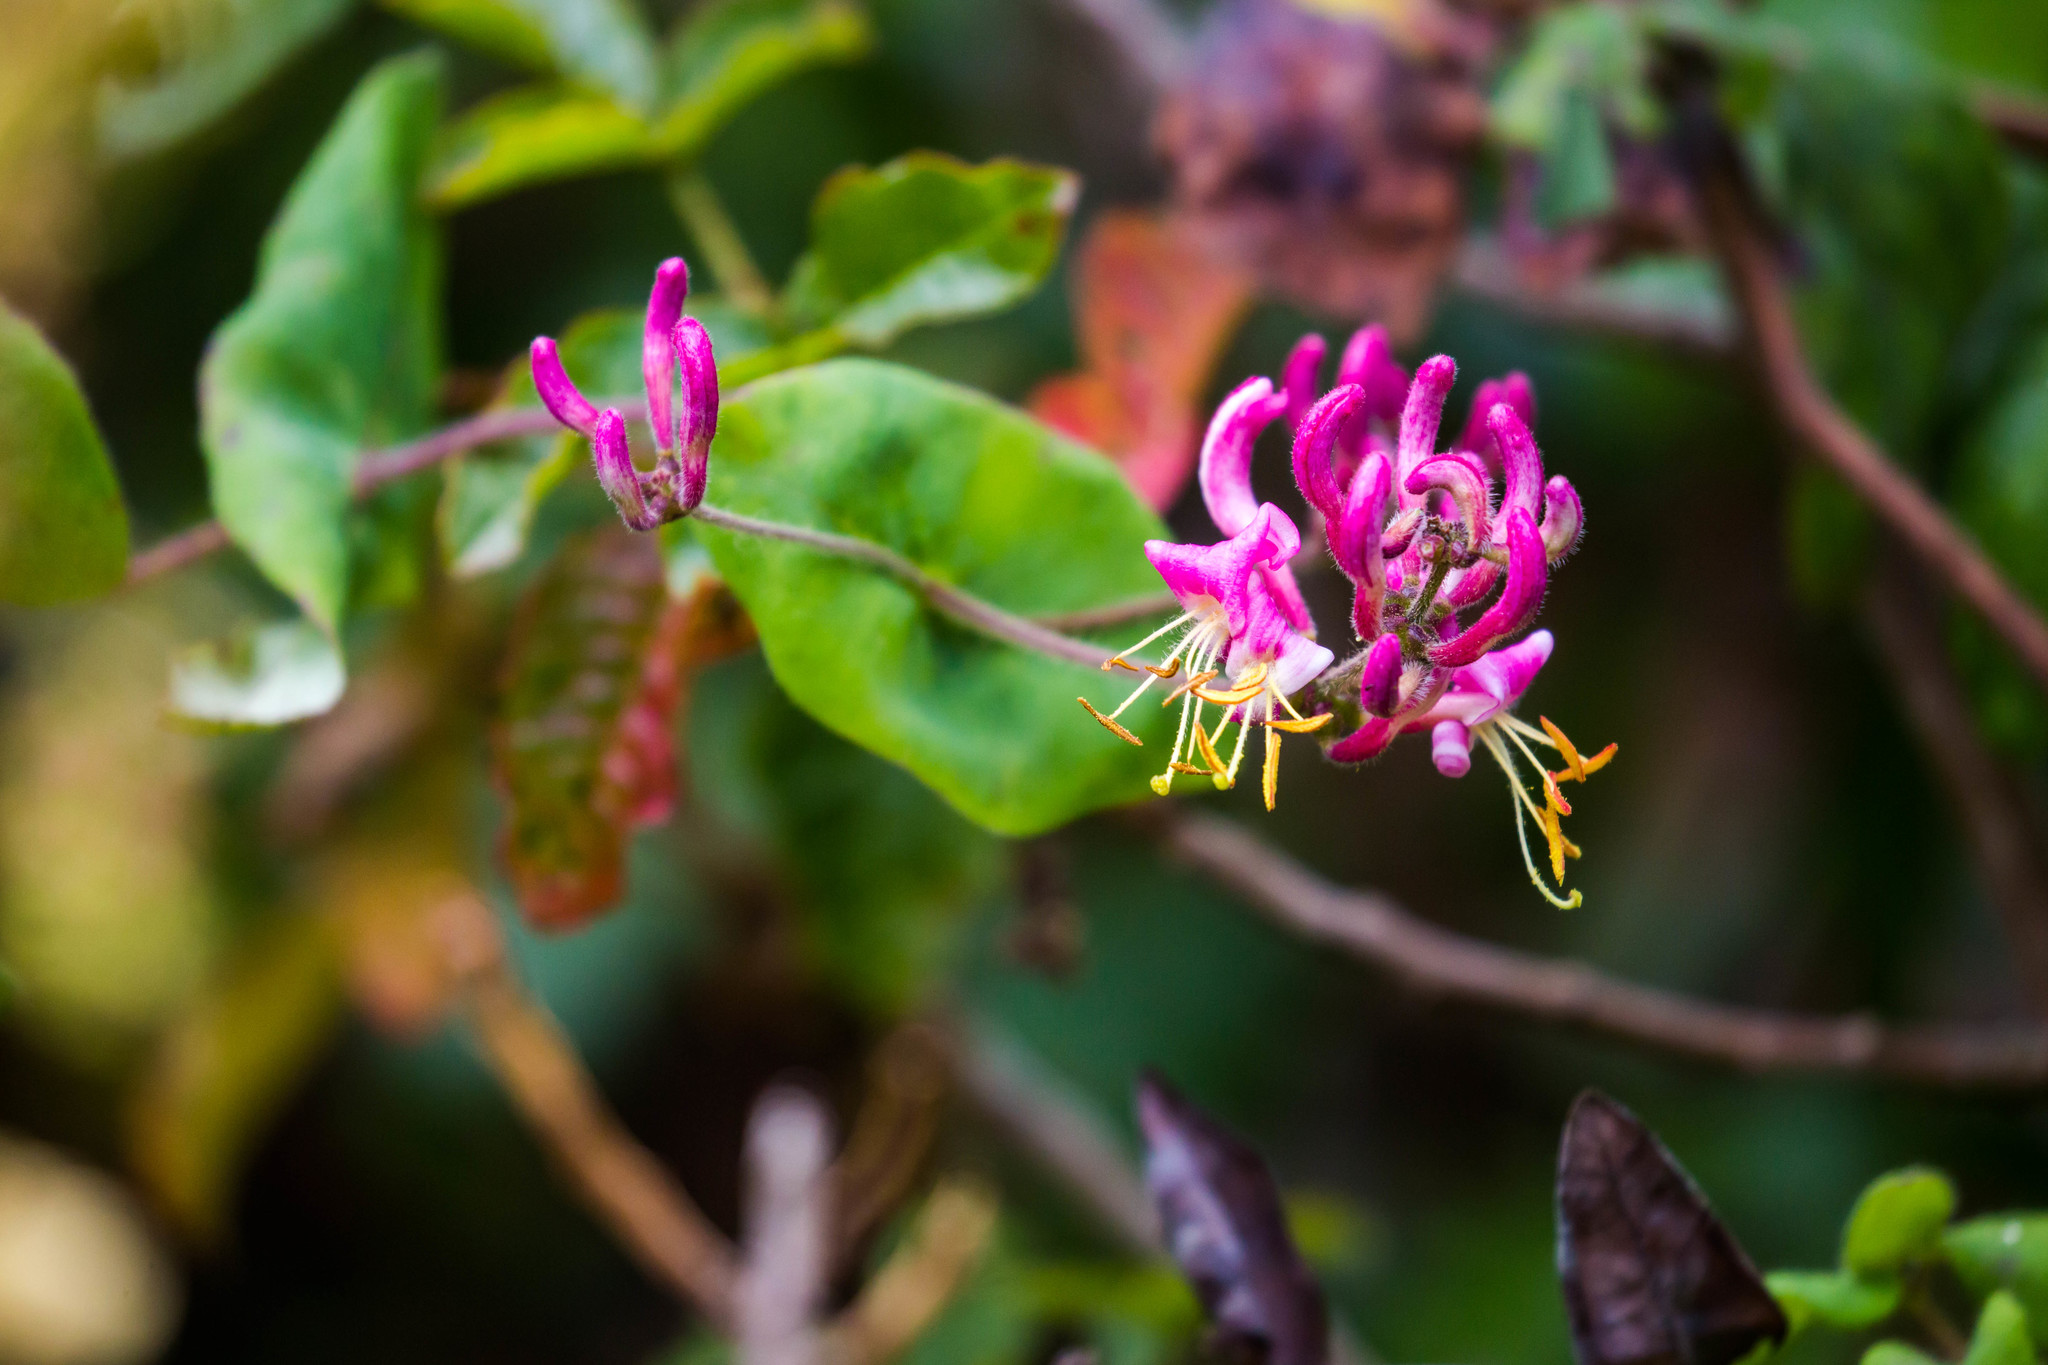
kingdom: Plantae
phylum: Tracheophyta
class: Magnoliopsida
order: Dipsacales
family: Caprifoliaceae
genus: Lonicera
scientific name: Lonicera hispidula
